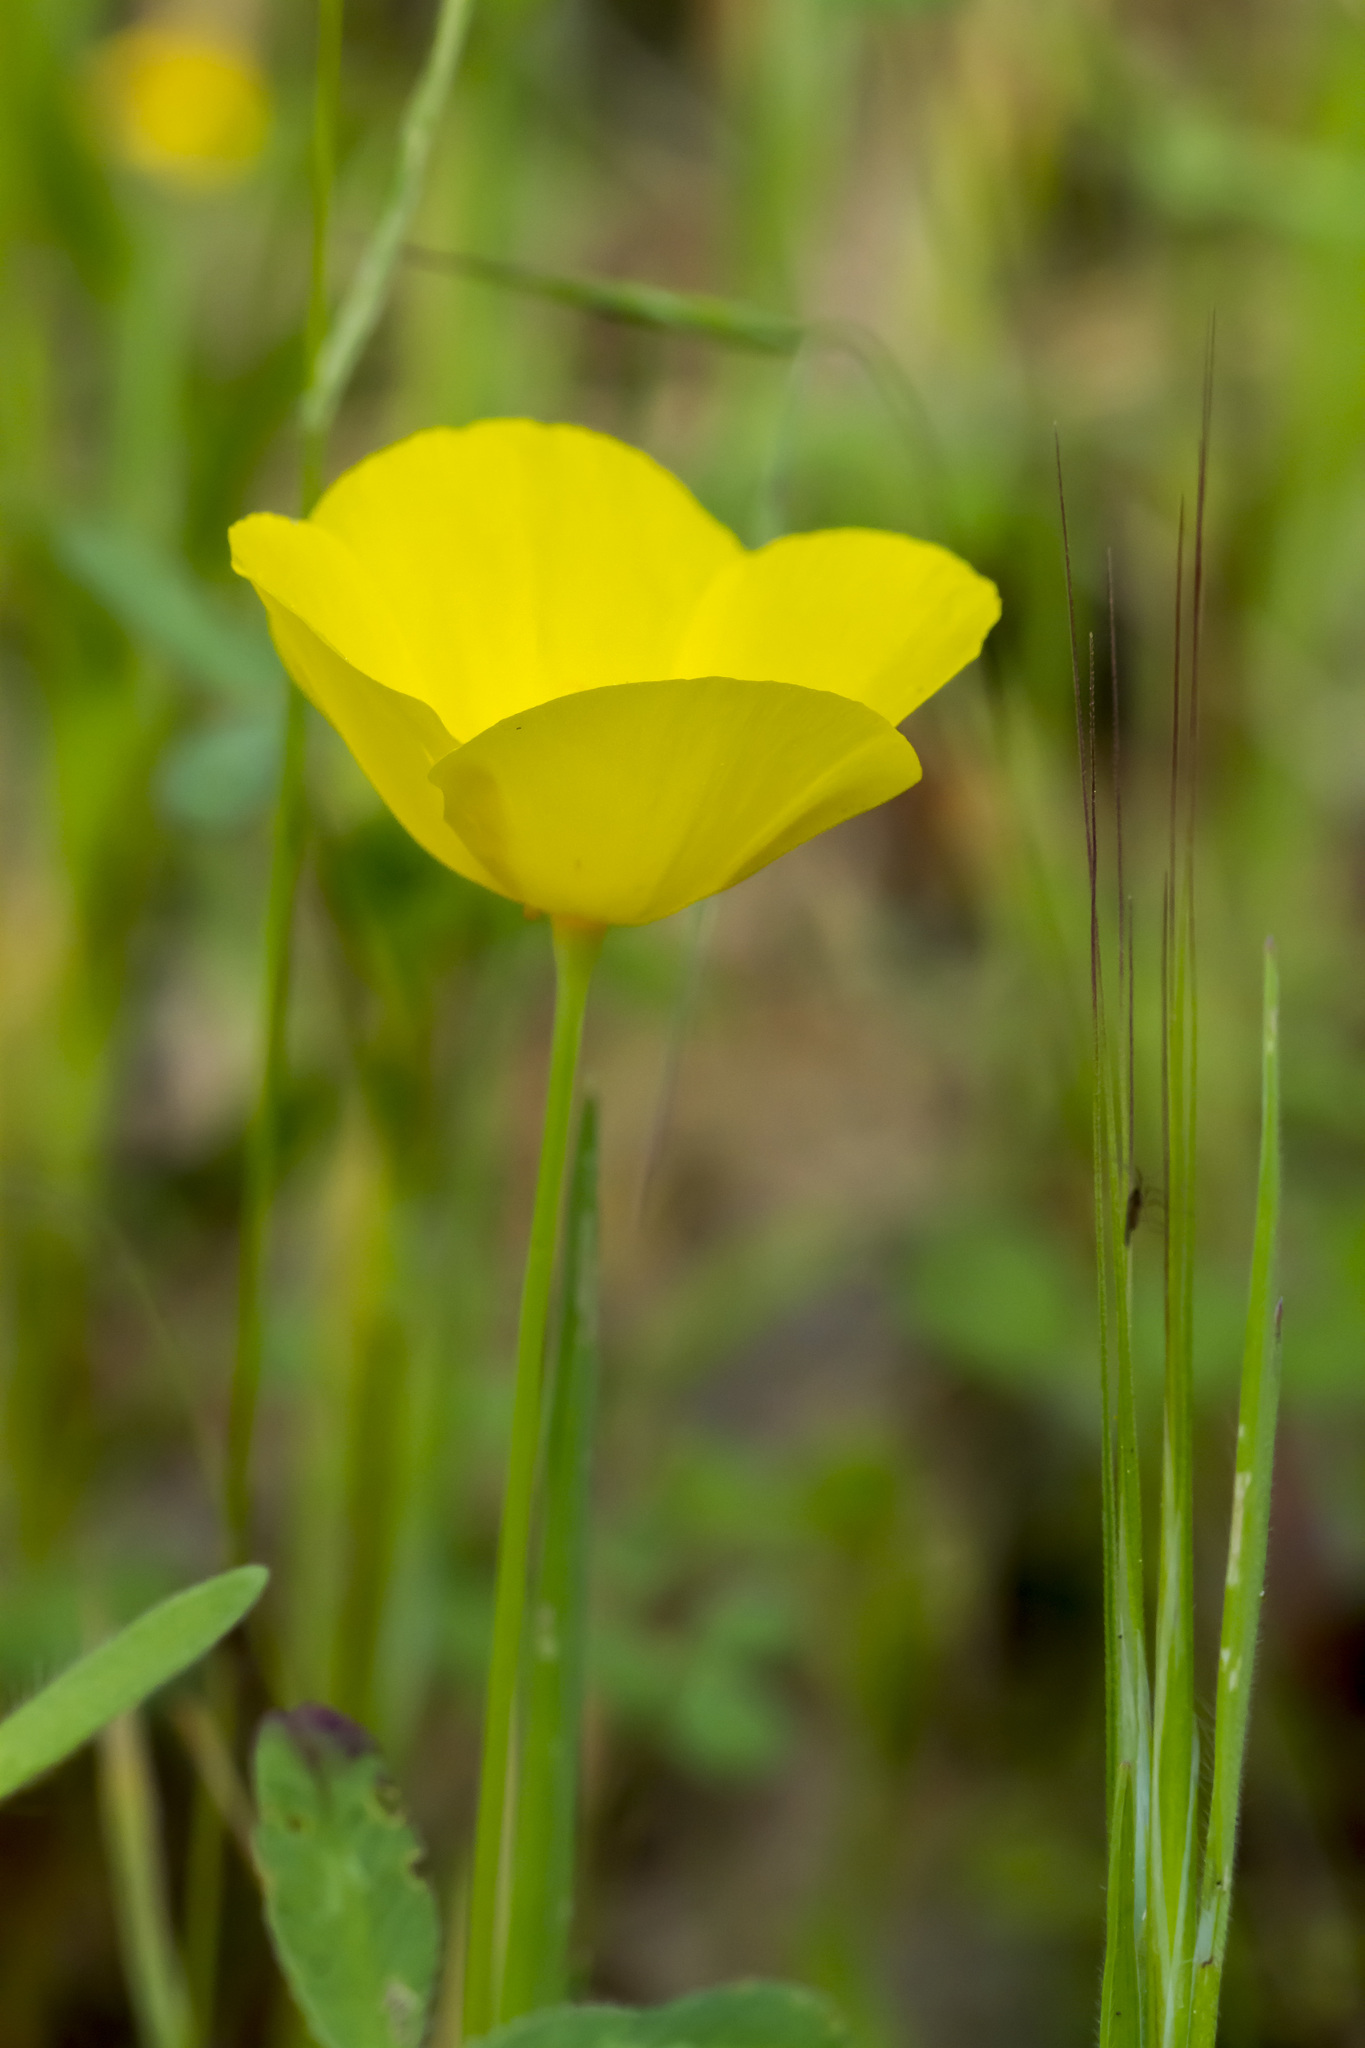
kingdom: Plantae
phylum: Tracheophyta
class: Magnoliopsida
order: Ranunculales
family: Papaveraceae
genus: Eschscholzia
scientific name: Eschscholzia caespitosa
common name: Tufted california-poppy
